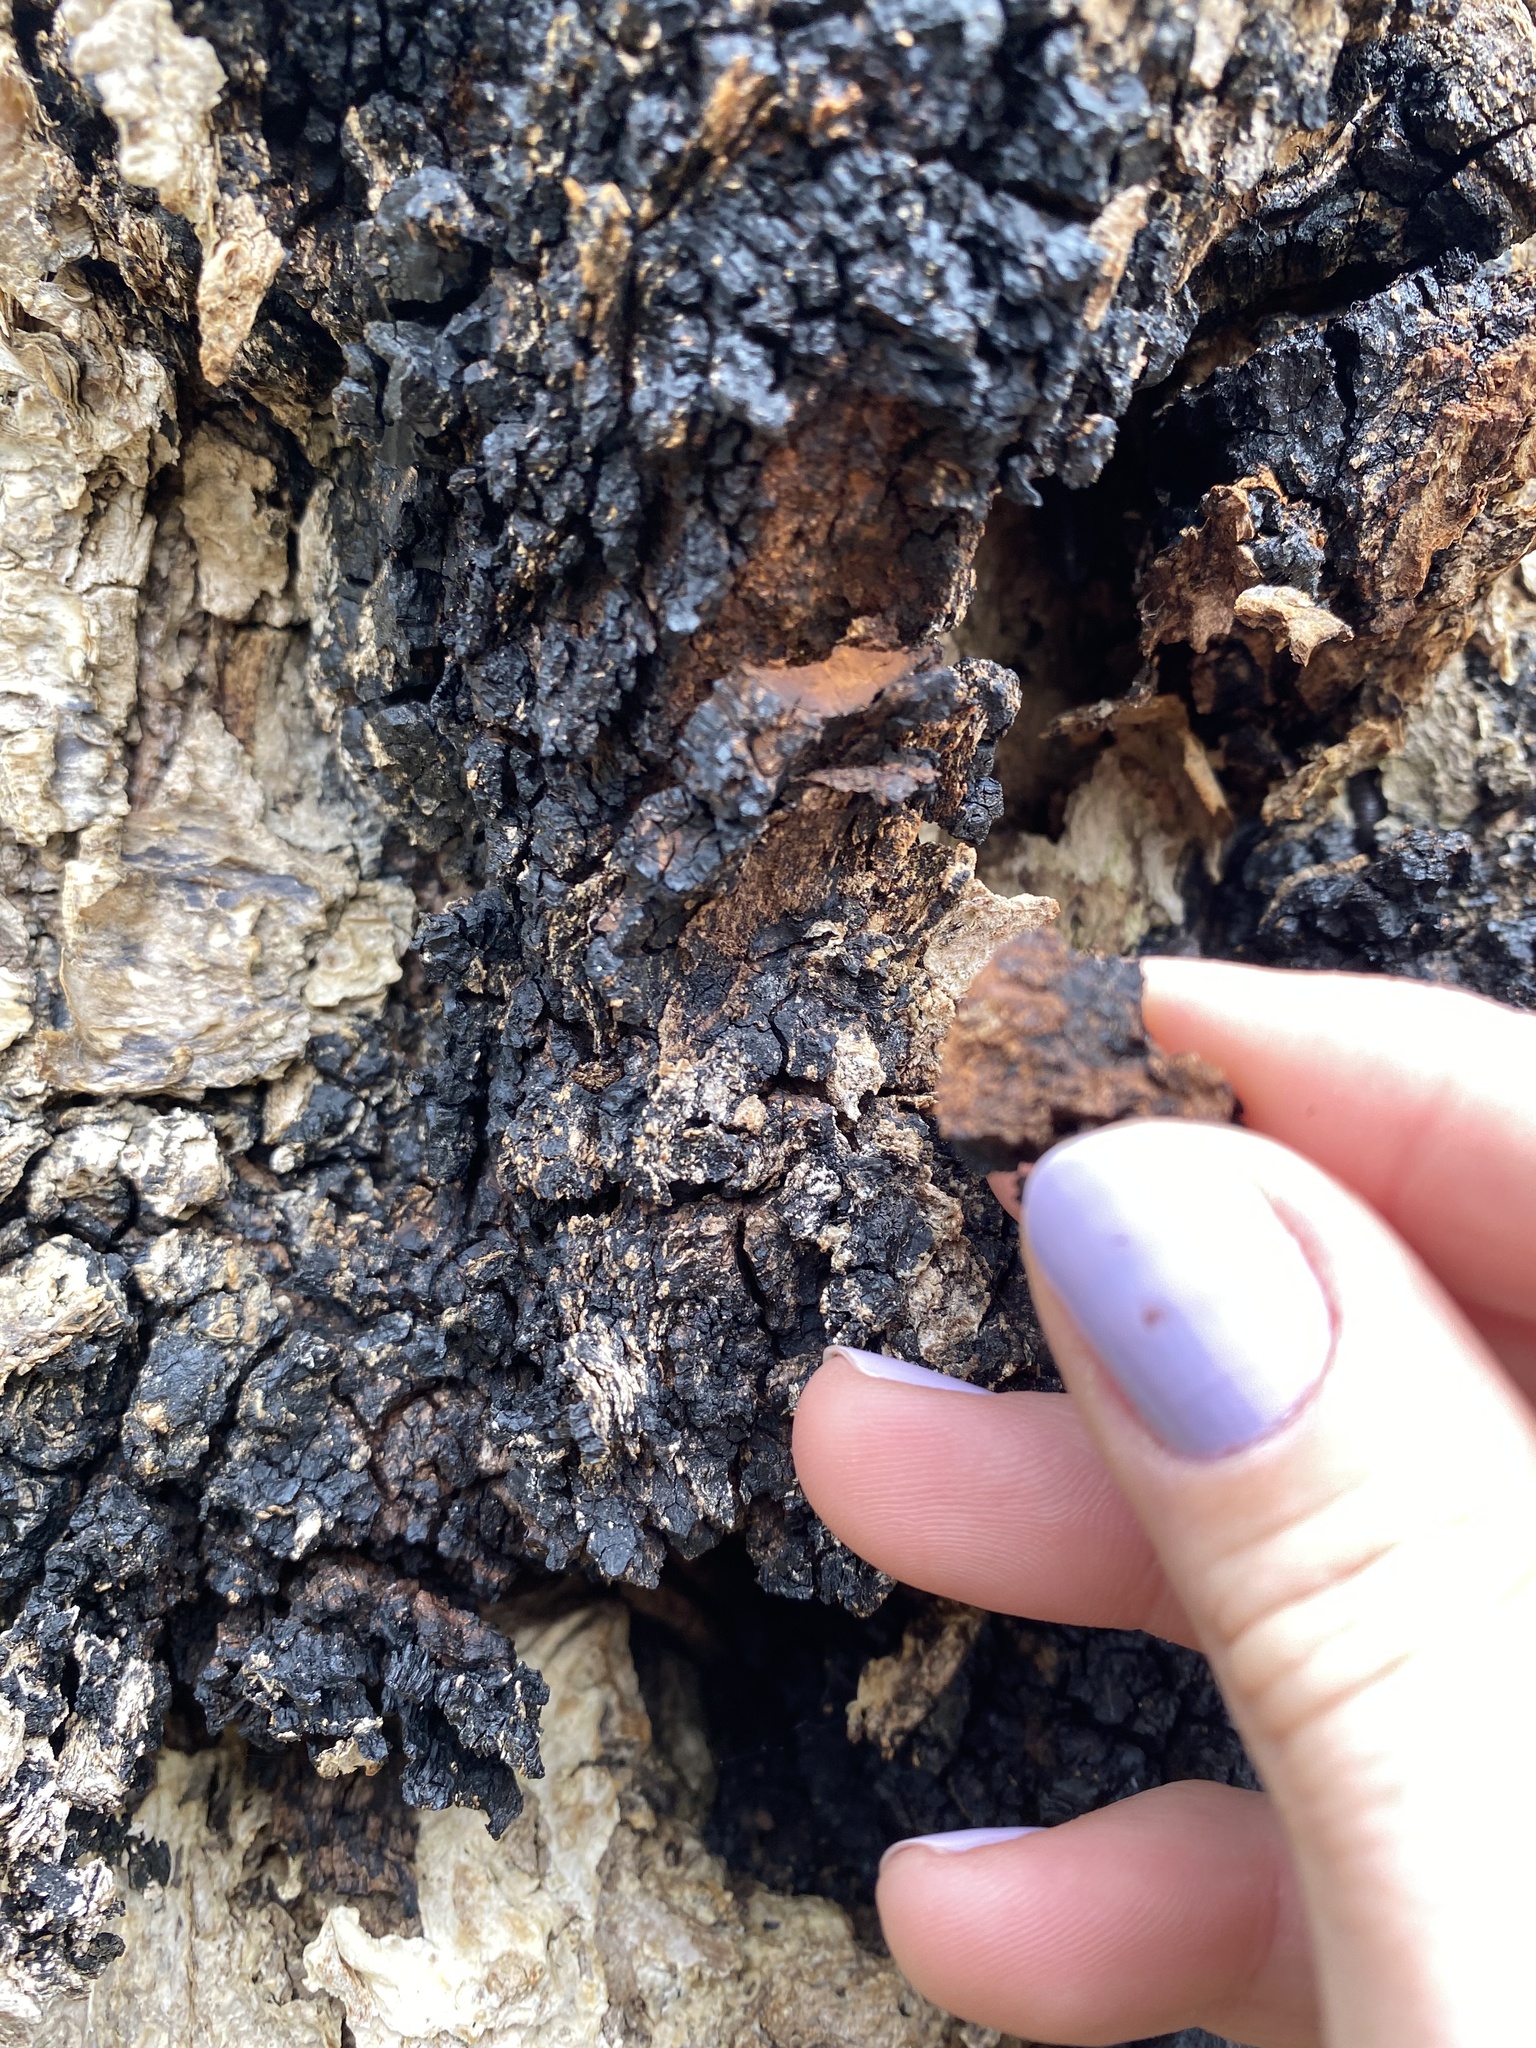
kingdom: Fungi
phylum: Basidiomycota
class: Agaricomycetes
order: Hymenochaetales
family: Hymenochaetaceae
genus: Inonotus
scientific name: Inonotus obliquus
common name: Chaga
